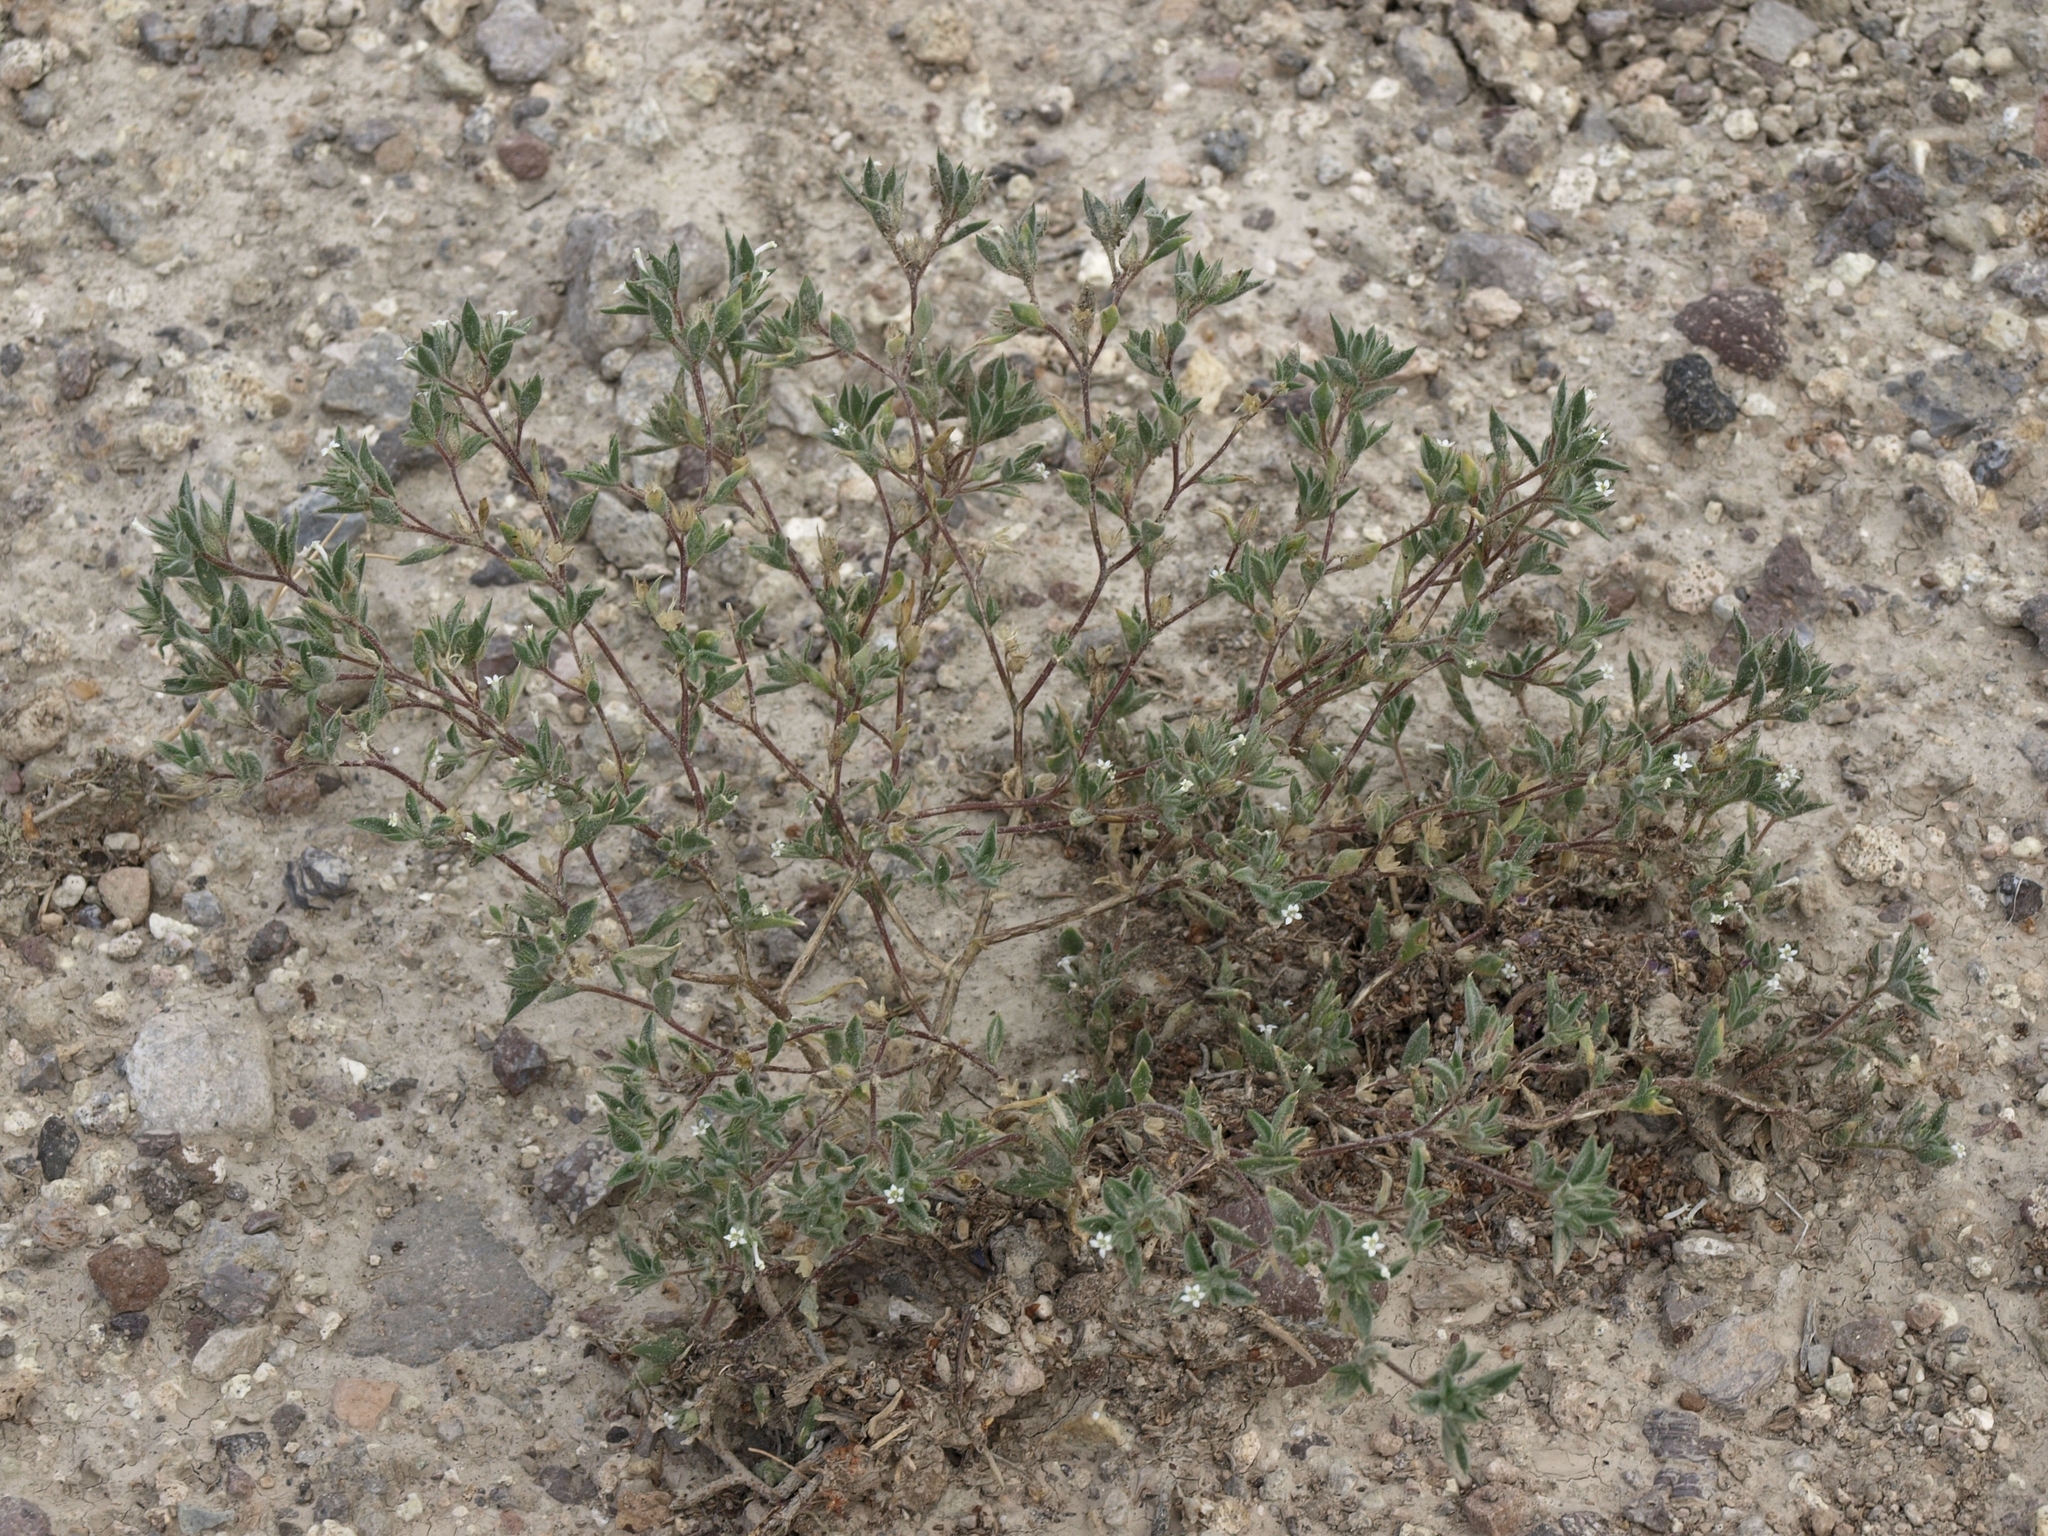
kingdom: Plantae
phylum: Tracheophyta
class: Magnoliopsida
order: Ericales
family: Polemoniaceae
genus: Loeseliastrum
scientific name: Loeseliastrum depressum
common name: Depressed ipomopsis
